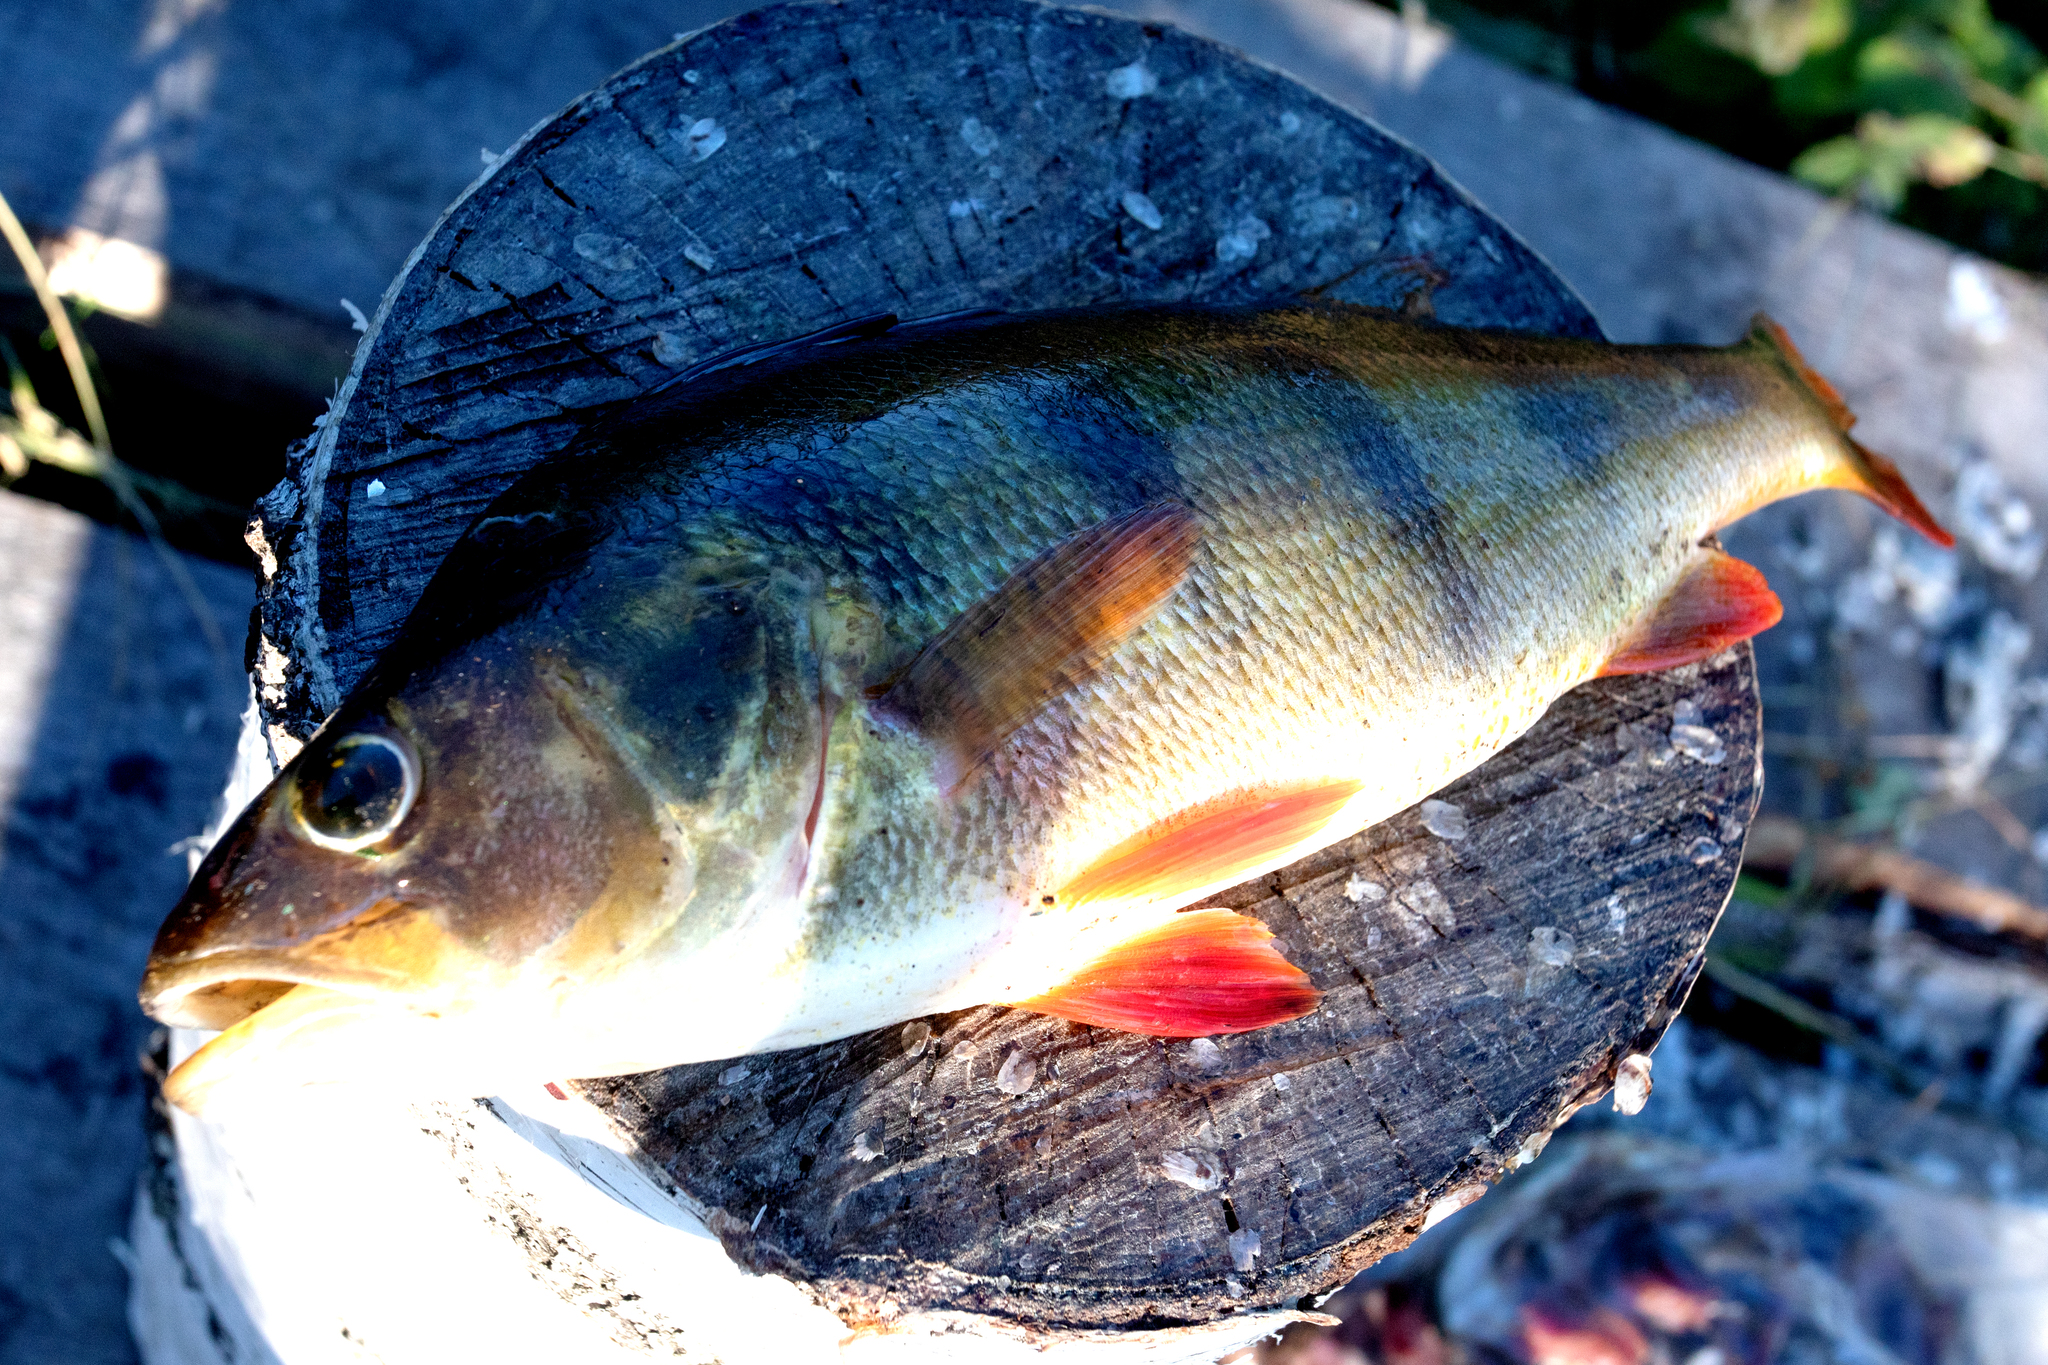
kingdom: Animalia
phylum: Chordata
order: Perciformes
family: Percidae
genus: Perca
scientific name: Perca fluviatilis
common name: Perch
